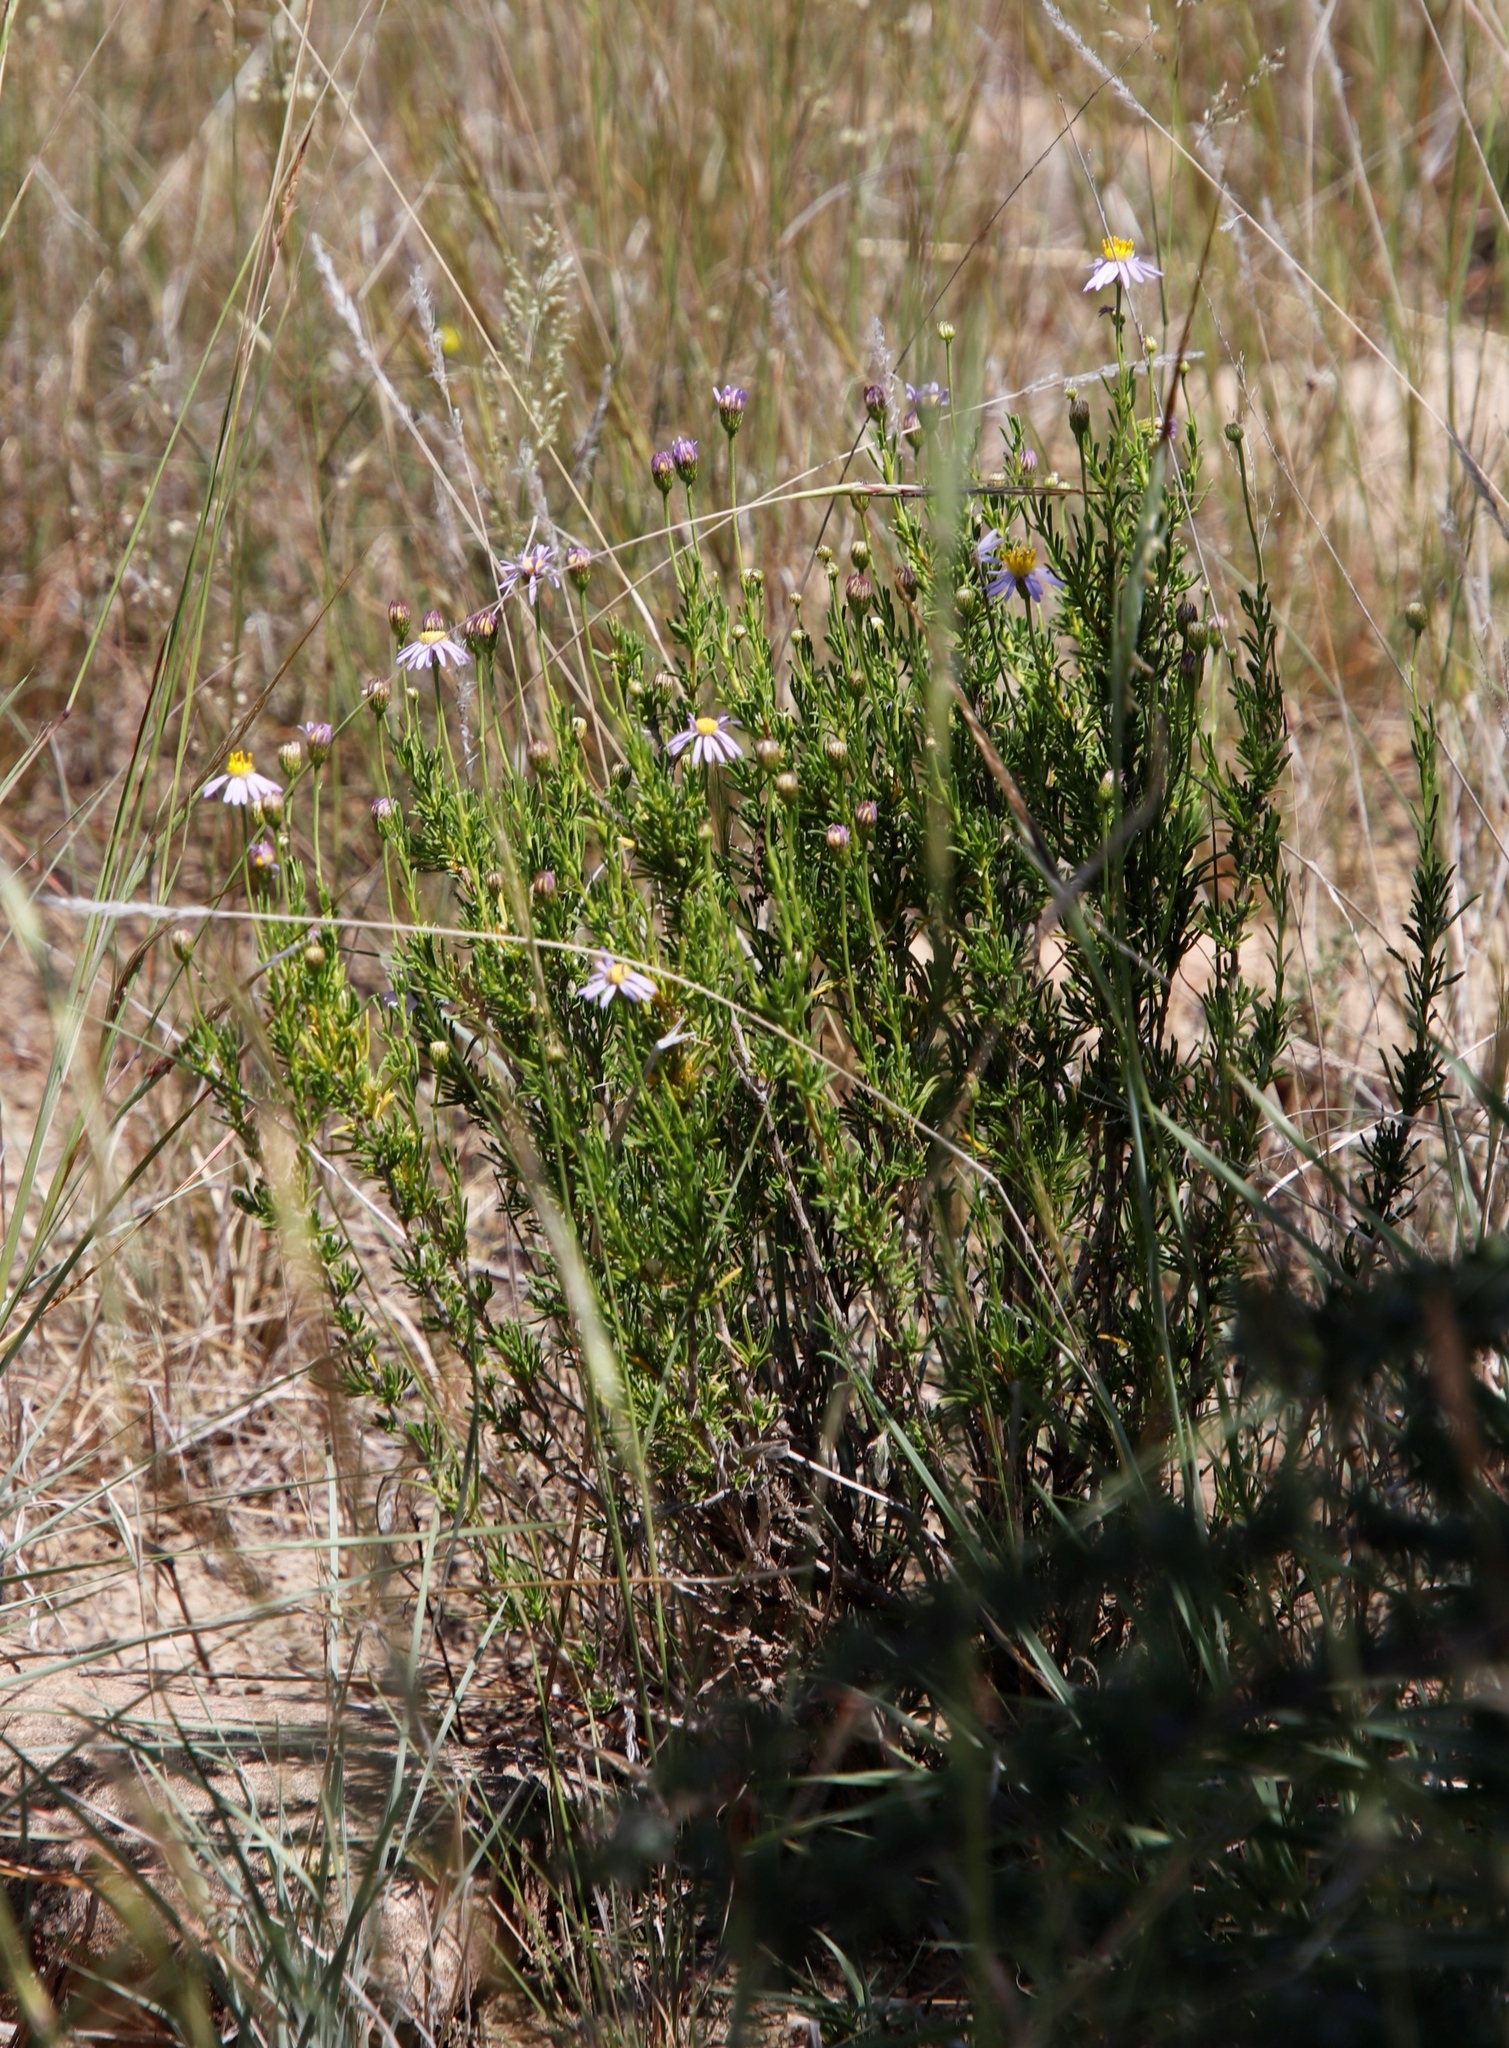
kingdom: Plantae
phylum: Tracheophyta
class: Magnoliopsida
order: Asterales
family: Asteraceae
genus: Felicia
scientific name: Felicia filifolia
